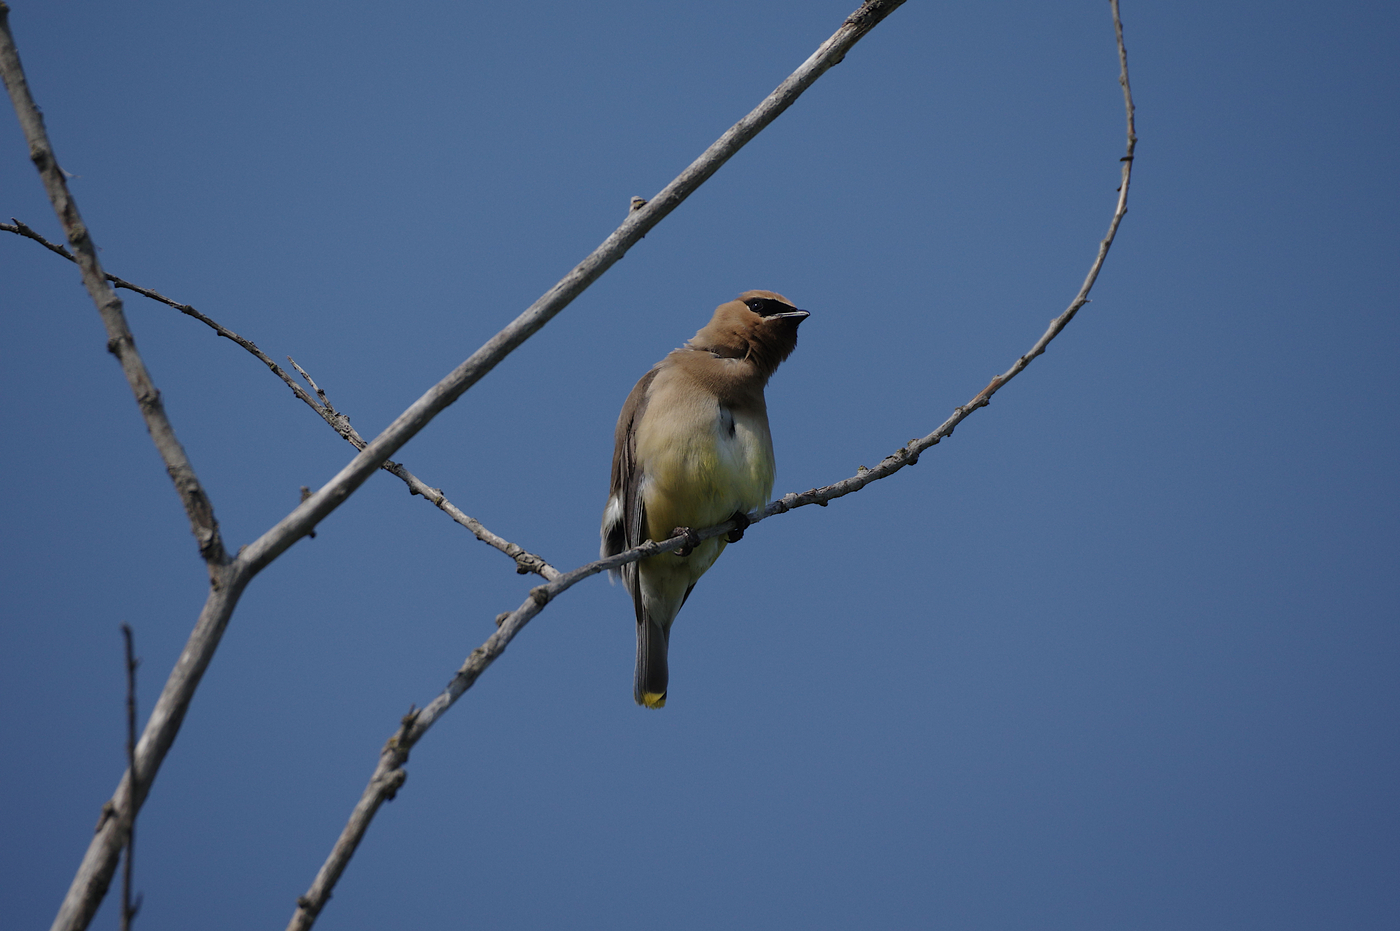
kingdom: Animalia
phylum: Chordata
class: Aves
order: Passeriformes
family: Bombycillidae
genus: Bombycilla
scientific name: Bombycilla cedrorum
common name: Cedar waxwing
